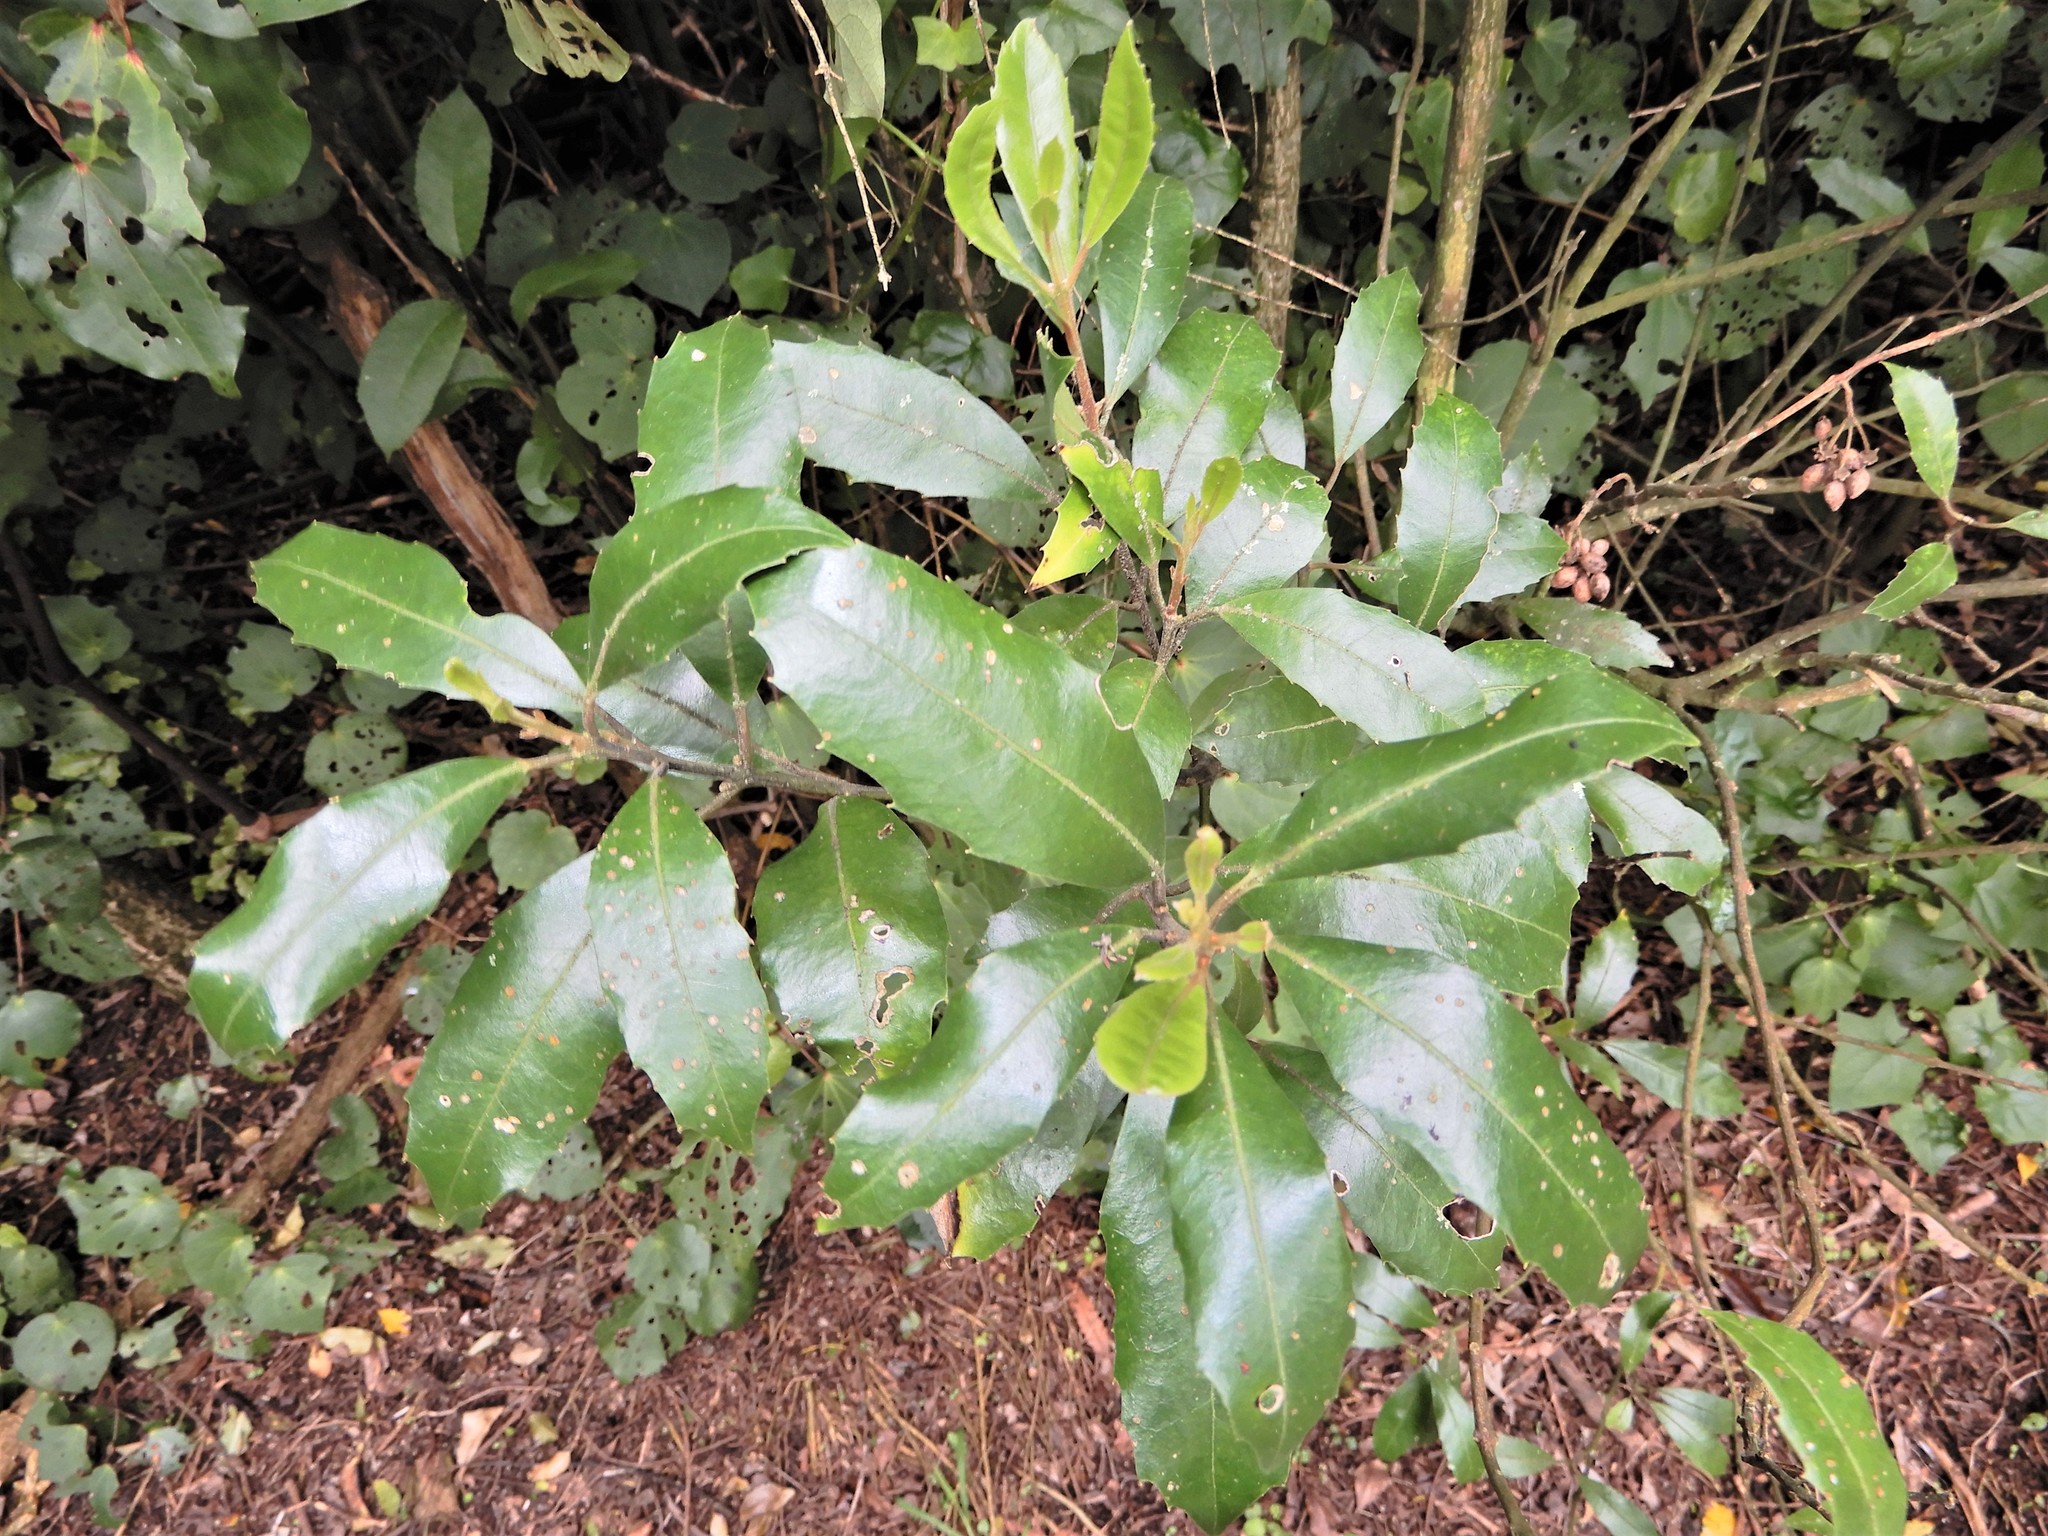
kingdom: Plantae
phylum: Tracheophyta
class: Magnoliopsida
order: Laurales
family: Monimiaceae
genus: Hedycarya
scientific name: Hedycarya arborea
